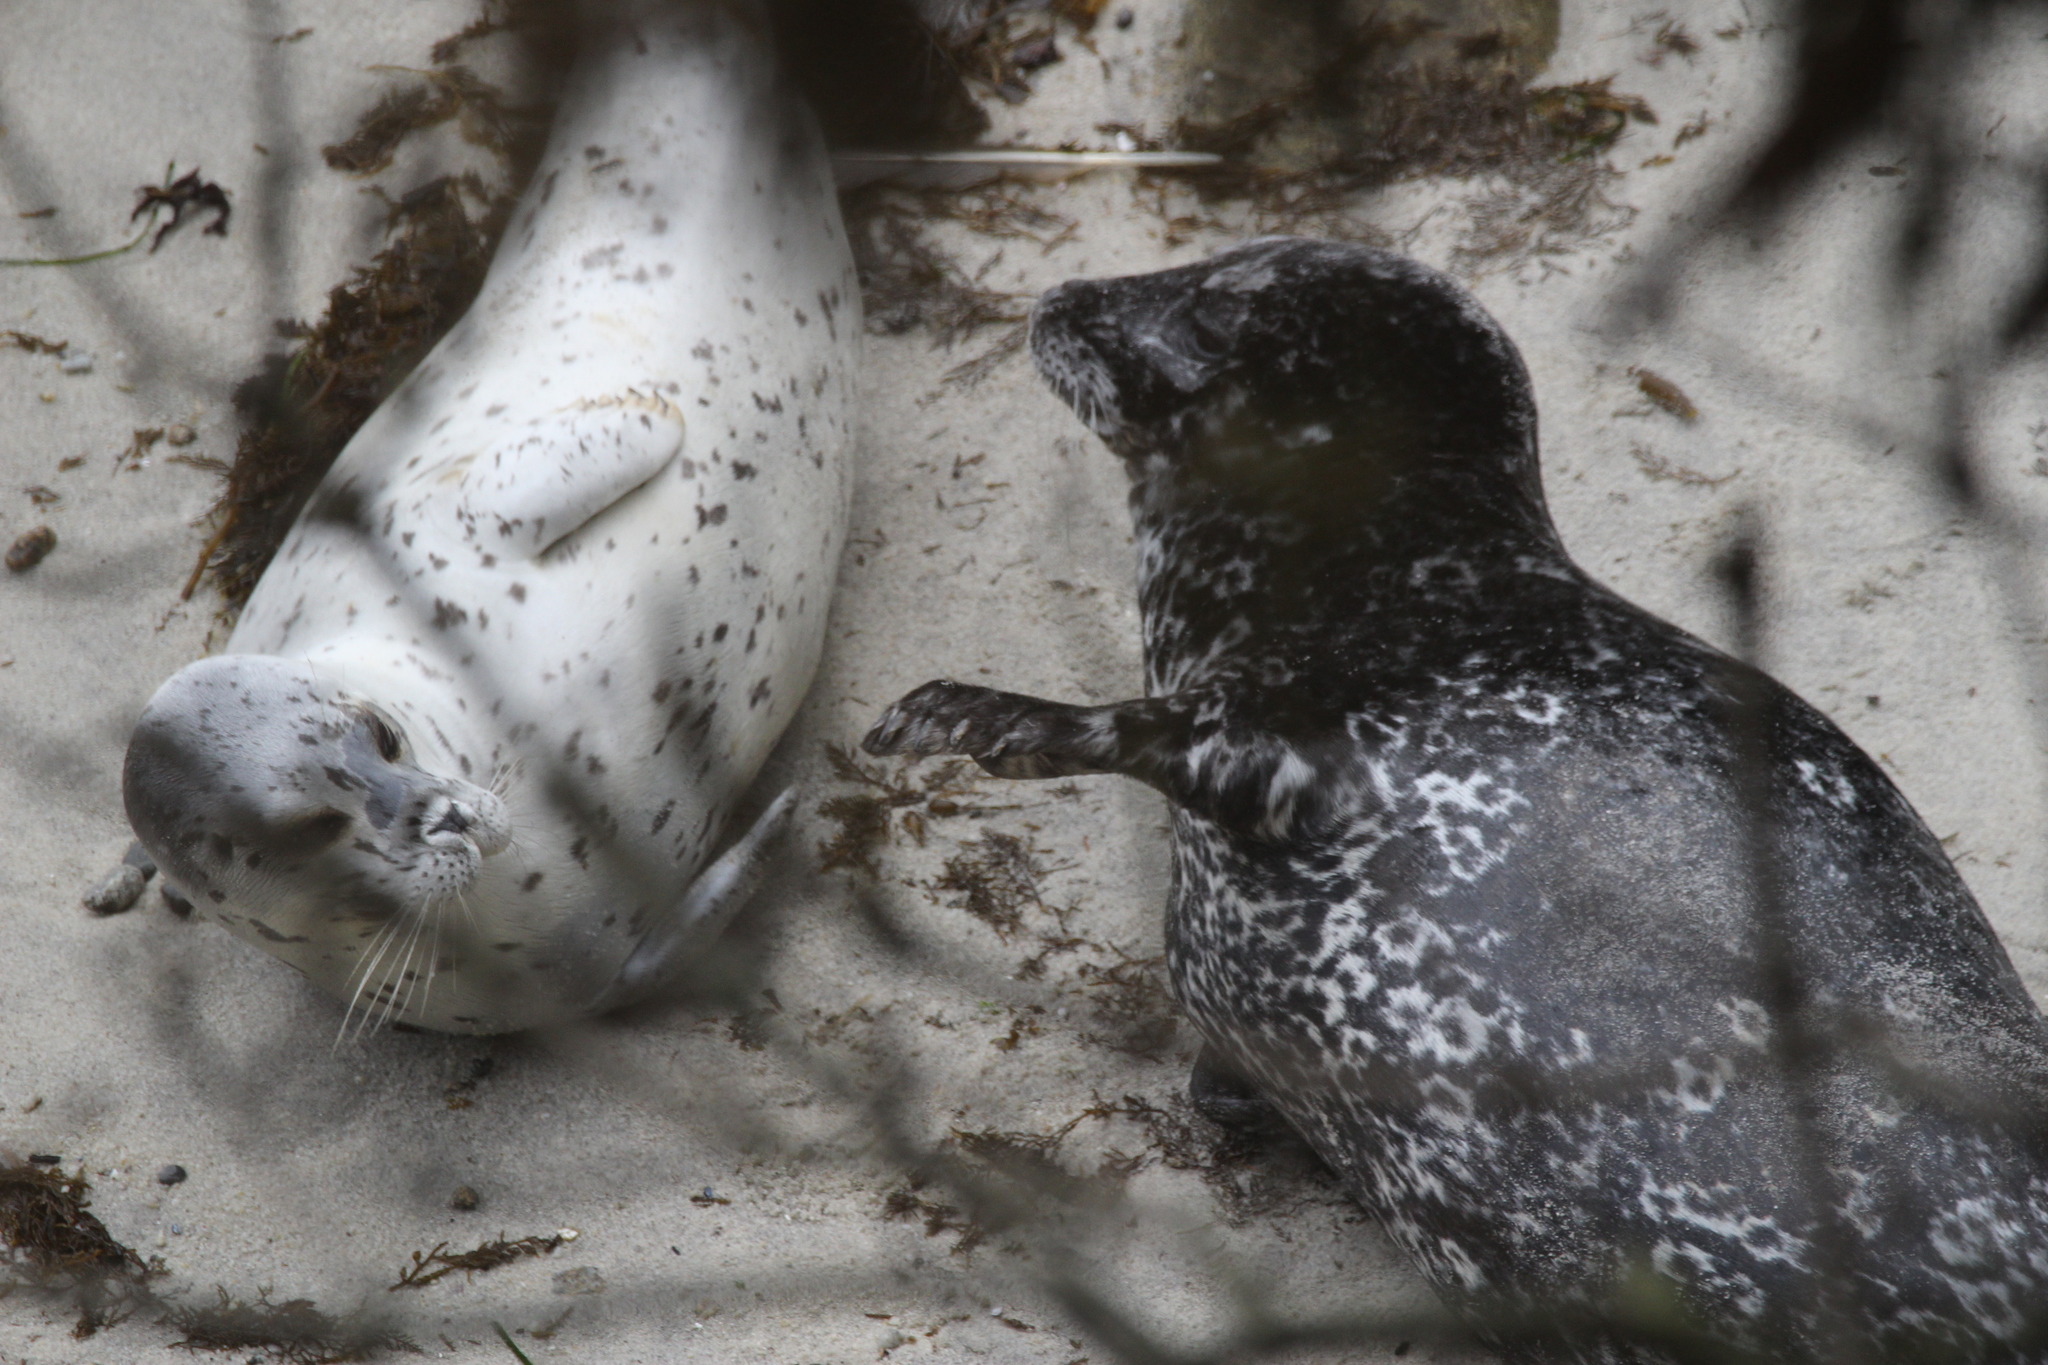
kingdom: Animalia
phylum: Chordata
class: Mammalia
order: Carnivora
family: Phocidae
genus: Phoca
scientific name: Phoca vitulina
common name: Harbor seal
